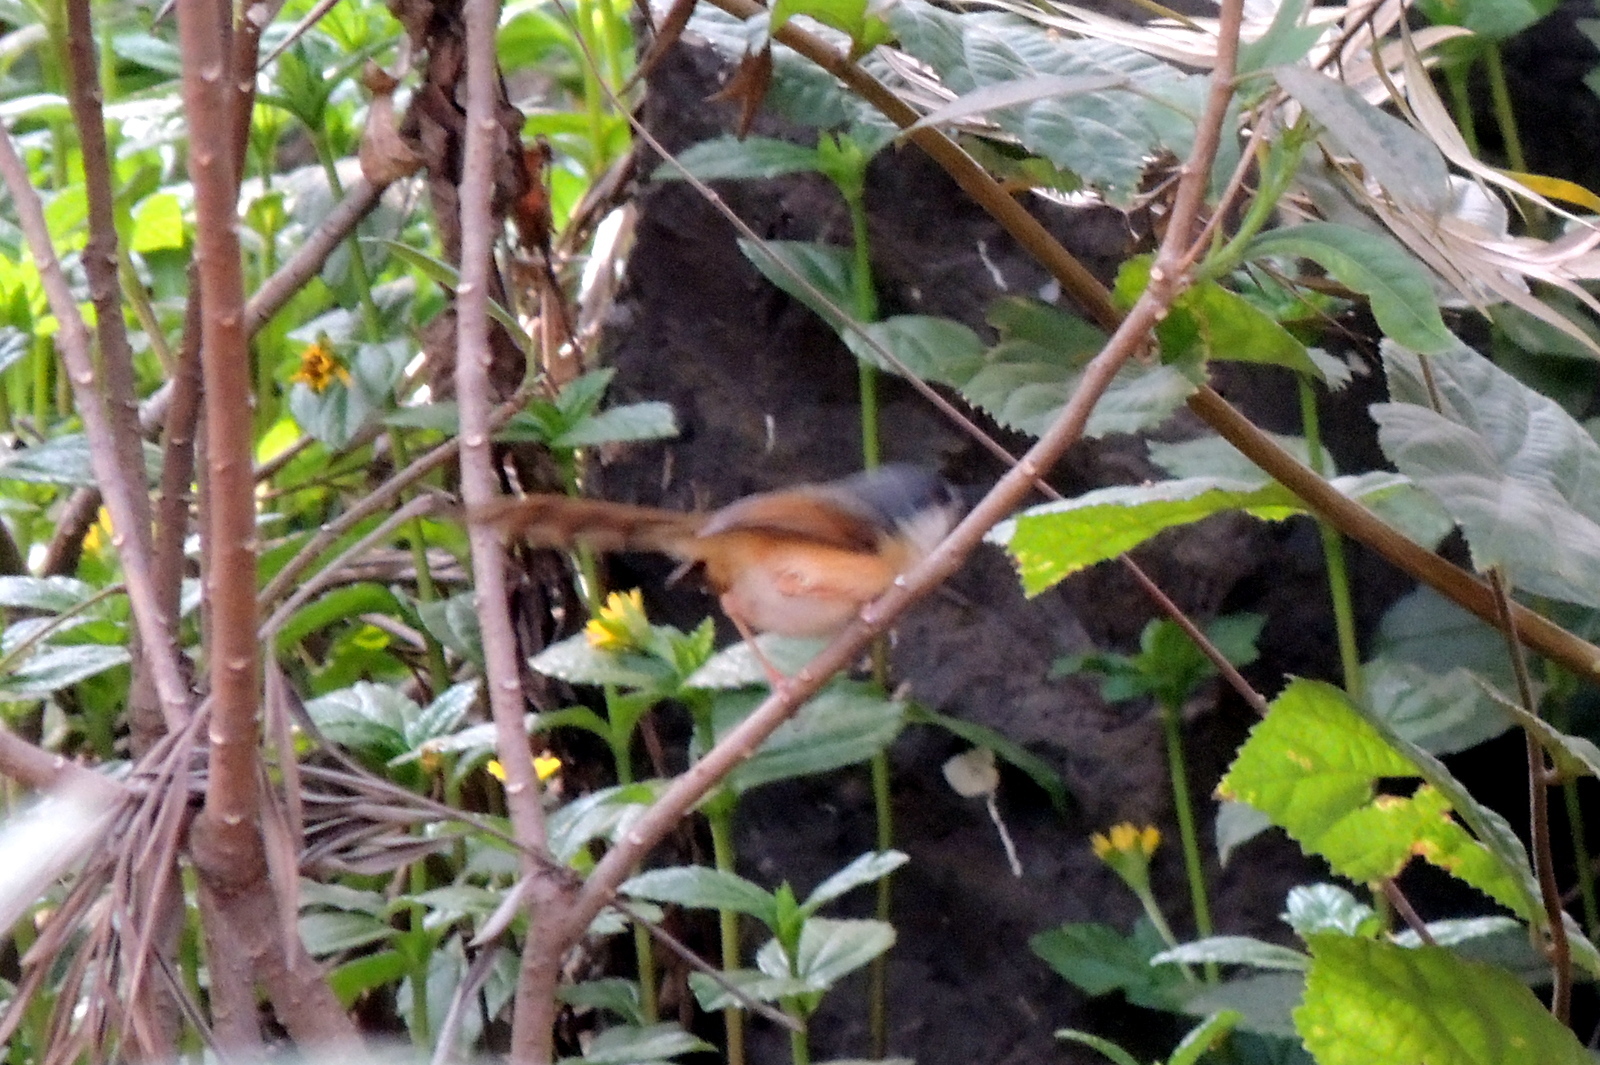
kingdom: Animalia
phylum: Chordata
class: Aves
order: Passeriformes
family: Cisticolidae
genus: Prinia
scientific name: Prinia socialis
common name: Ashy prinia
